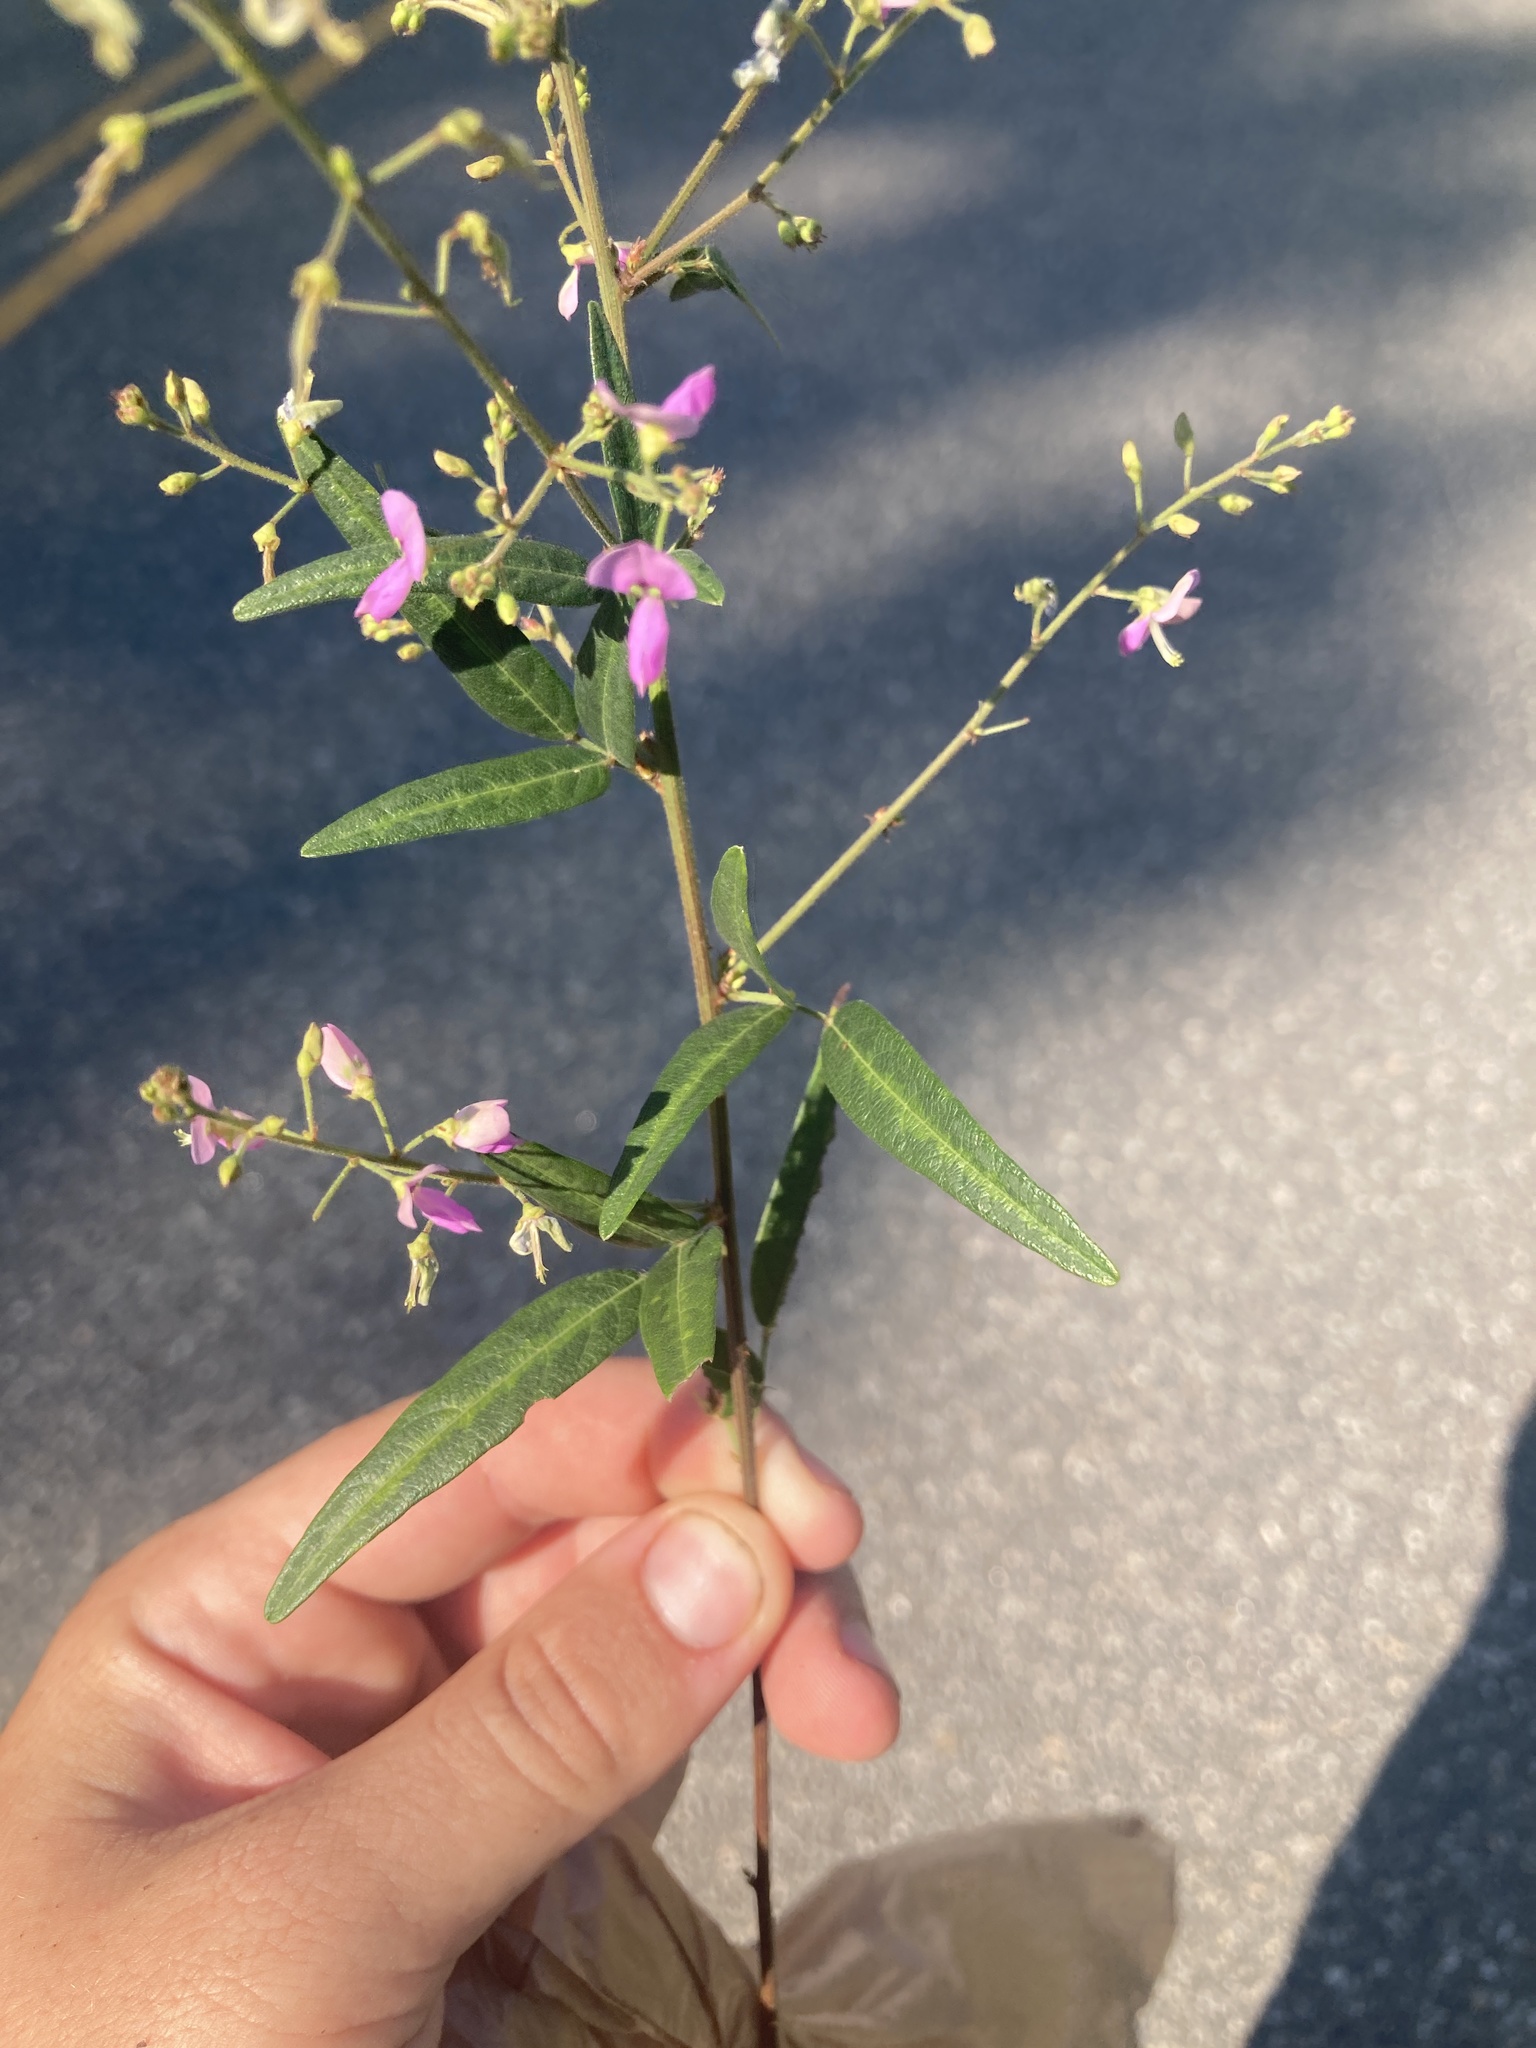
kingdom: Plantae
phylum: Tracheophyta
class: Magnoliopsida
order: Fabales
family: Fabaceae
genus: Desmodium
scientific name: Desmodium paniculatum
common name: Panicled tick-clover
